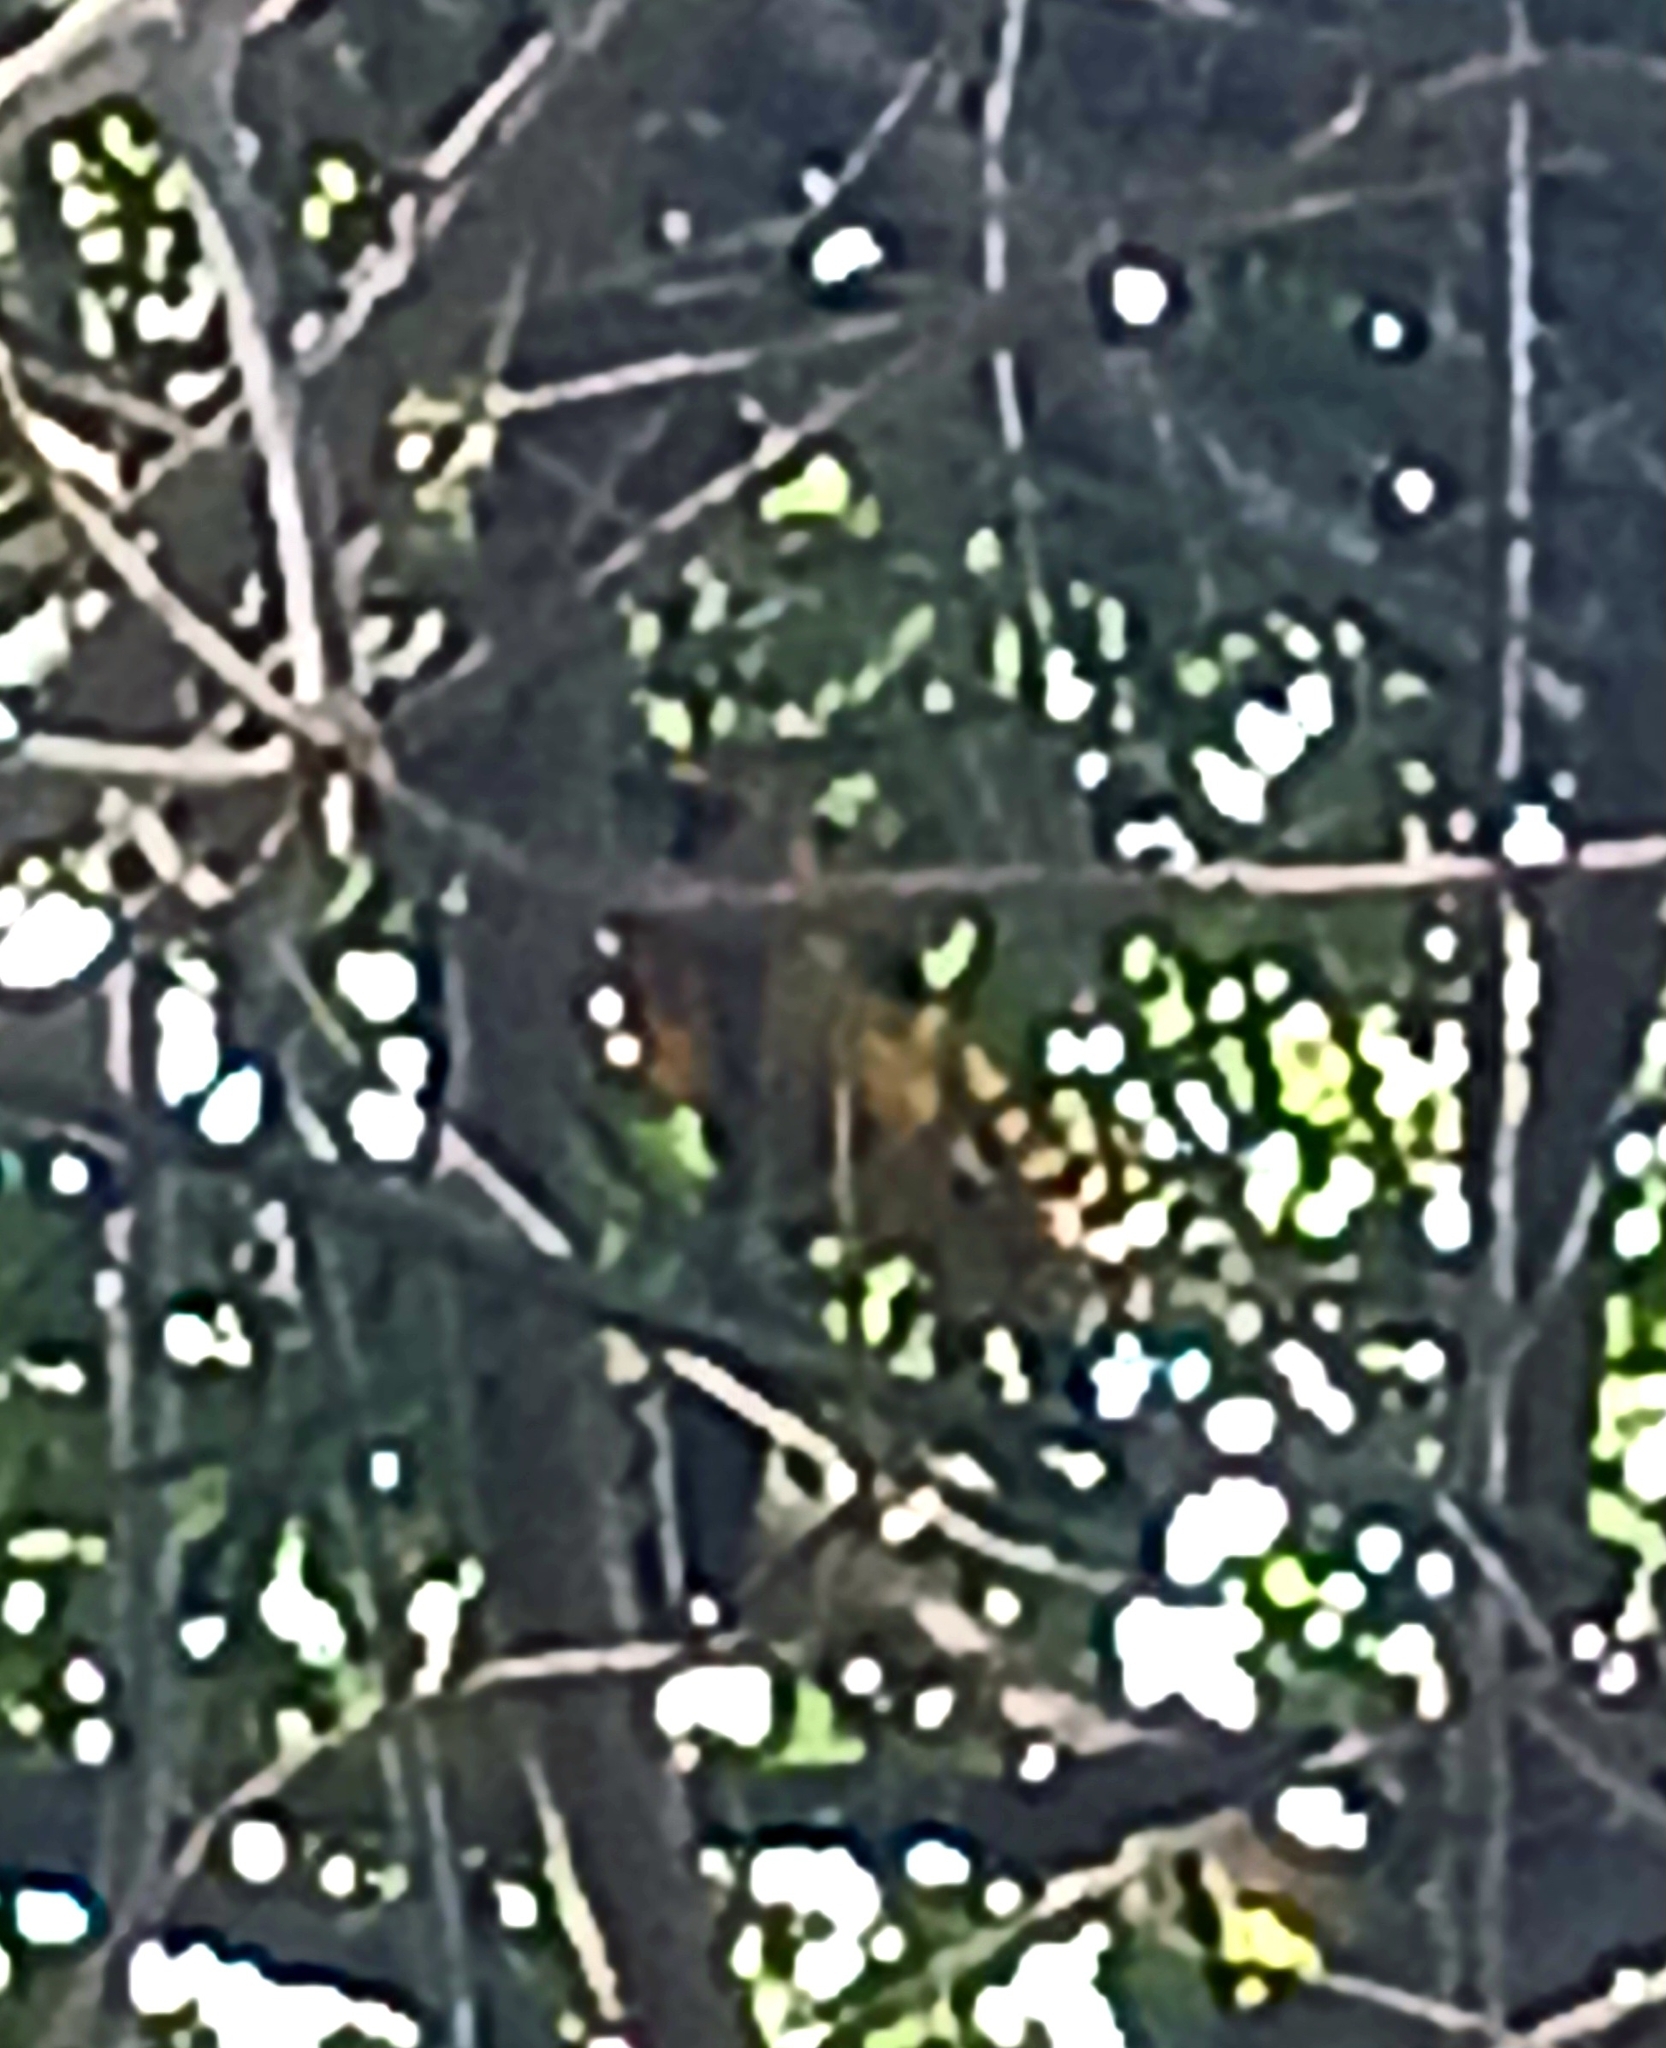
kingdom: Animalia
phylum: Chordata
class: Aves
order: Passeriformes
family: Icteridae
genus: Icterus
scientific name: Icterus pectoralis
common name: Spot-breasted oriole
